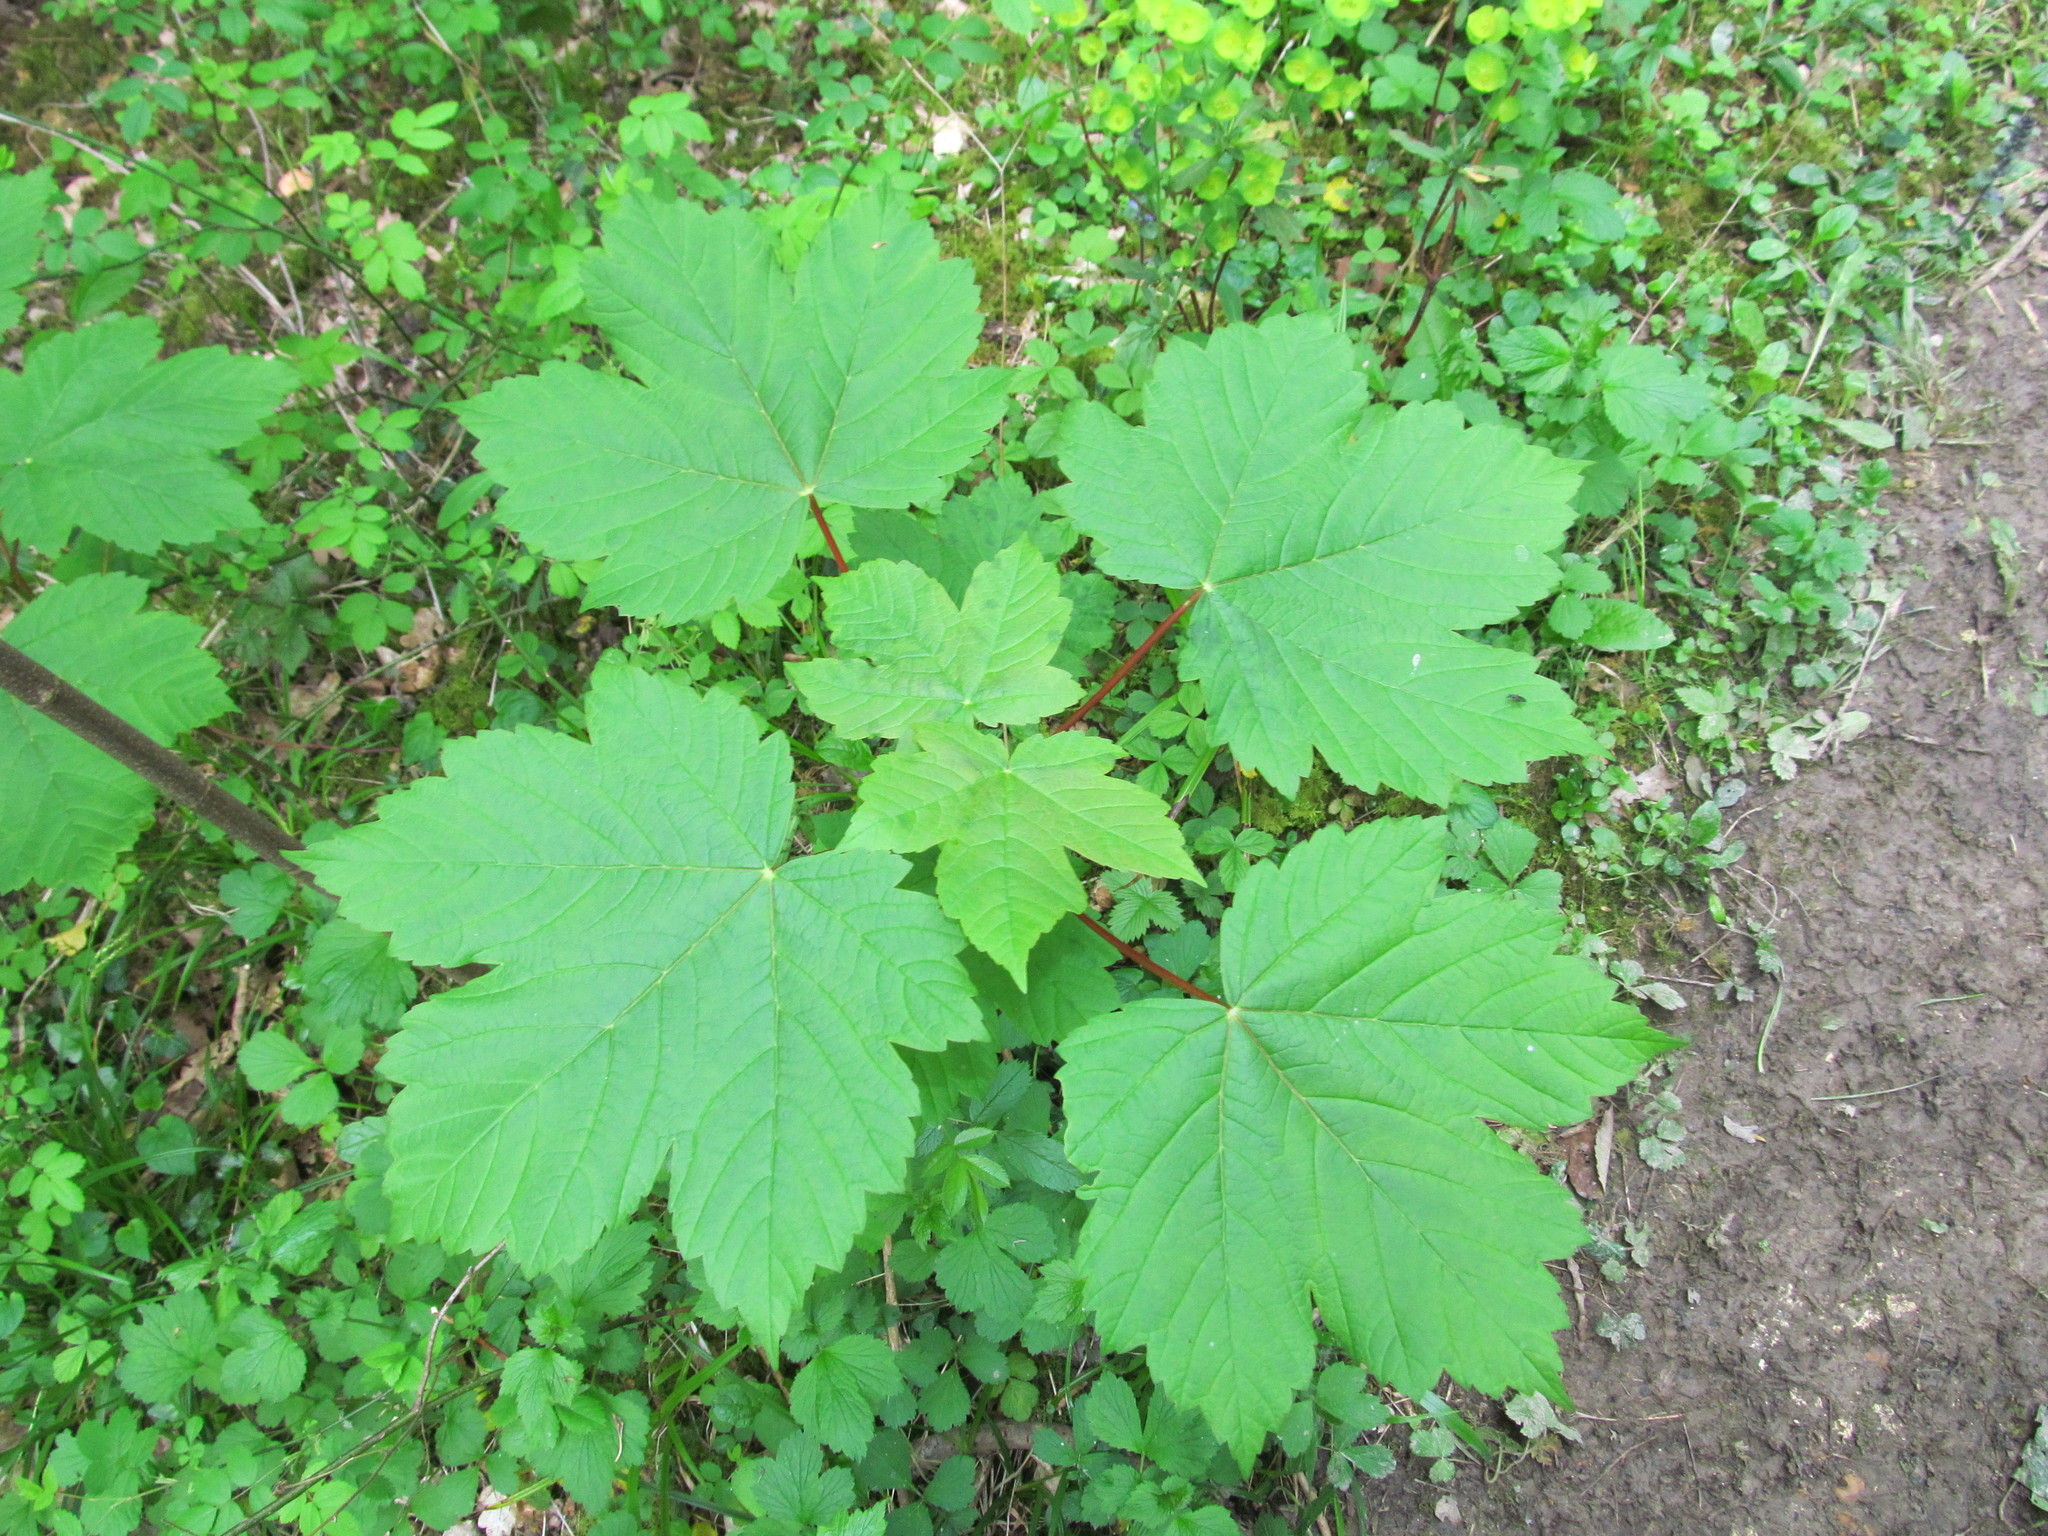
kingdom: Plantae
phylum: Tracheophyta
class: Magnoliopsida
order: Sapindales
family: Sapindaceae
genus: Acer
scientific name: Acer pseudoplatanus
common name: Sycamore
